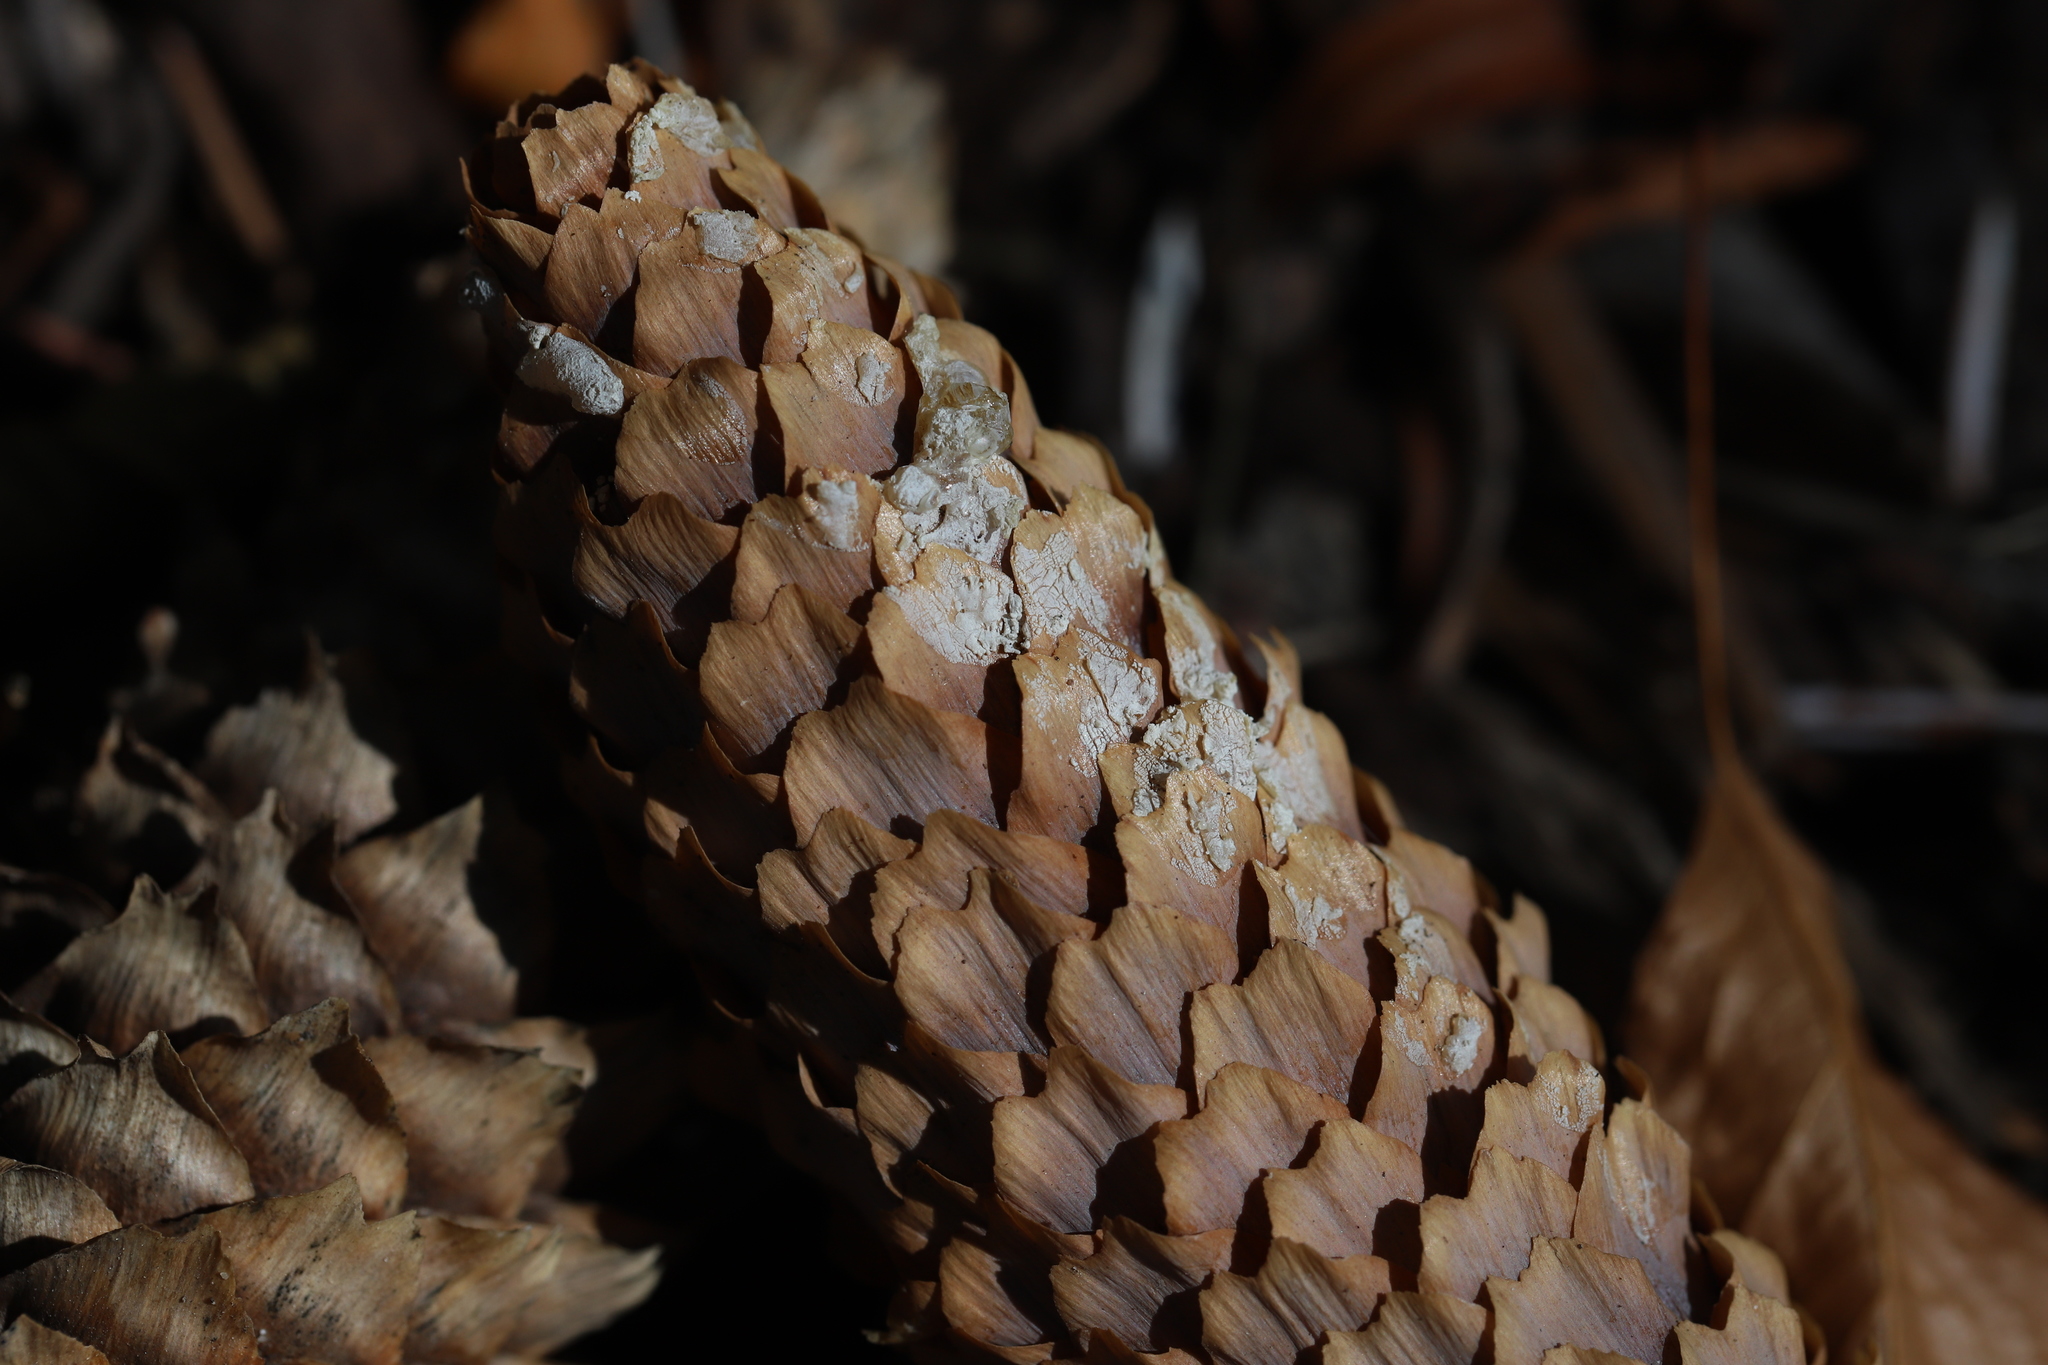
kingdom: Plantae
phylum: Tracheophyta
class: Pinopsida
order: Pinales
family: Pinaceae
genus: Picea
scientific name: Picea engelmannii
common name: Engelmann spruce
